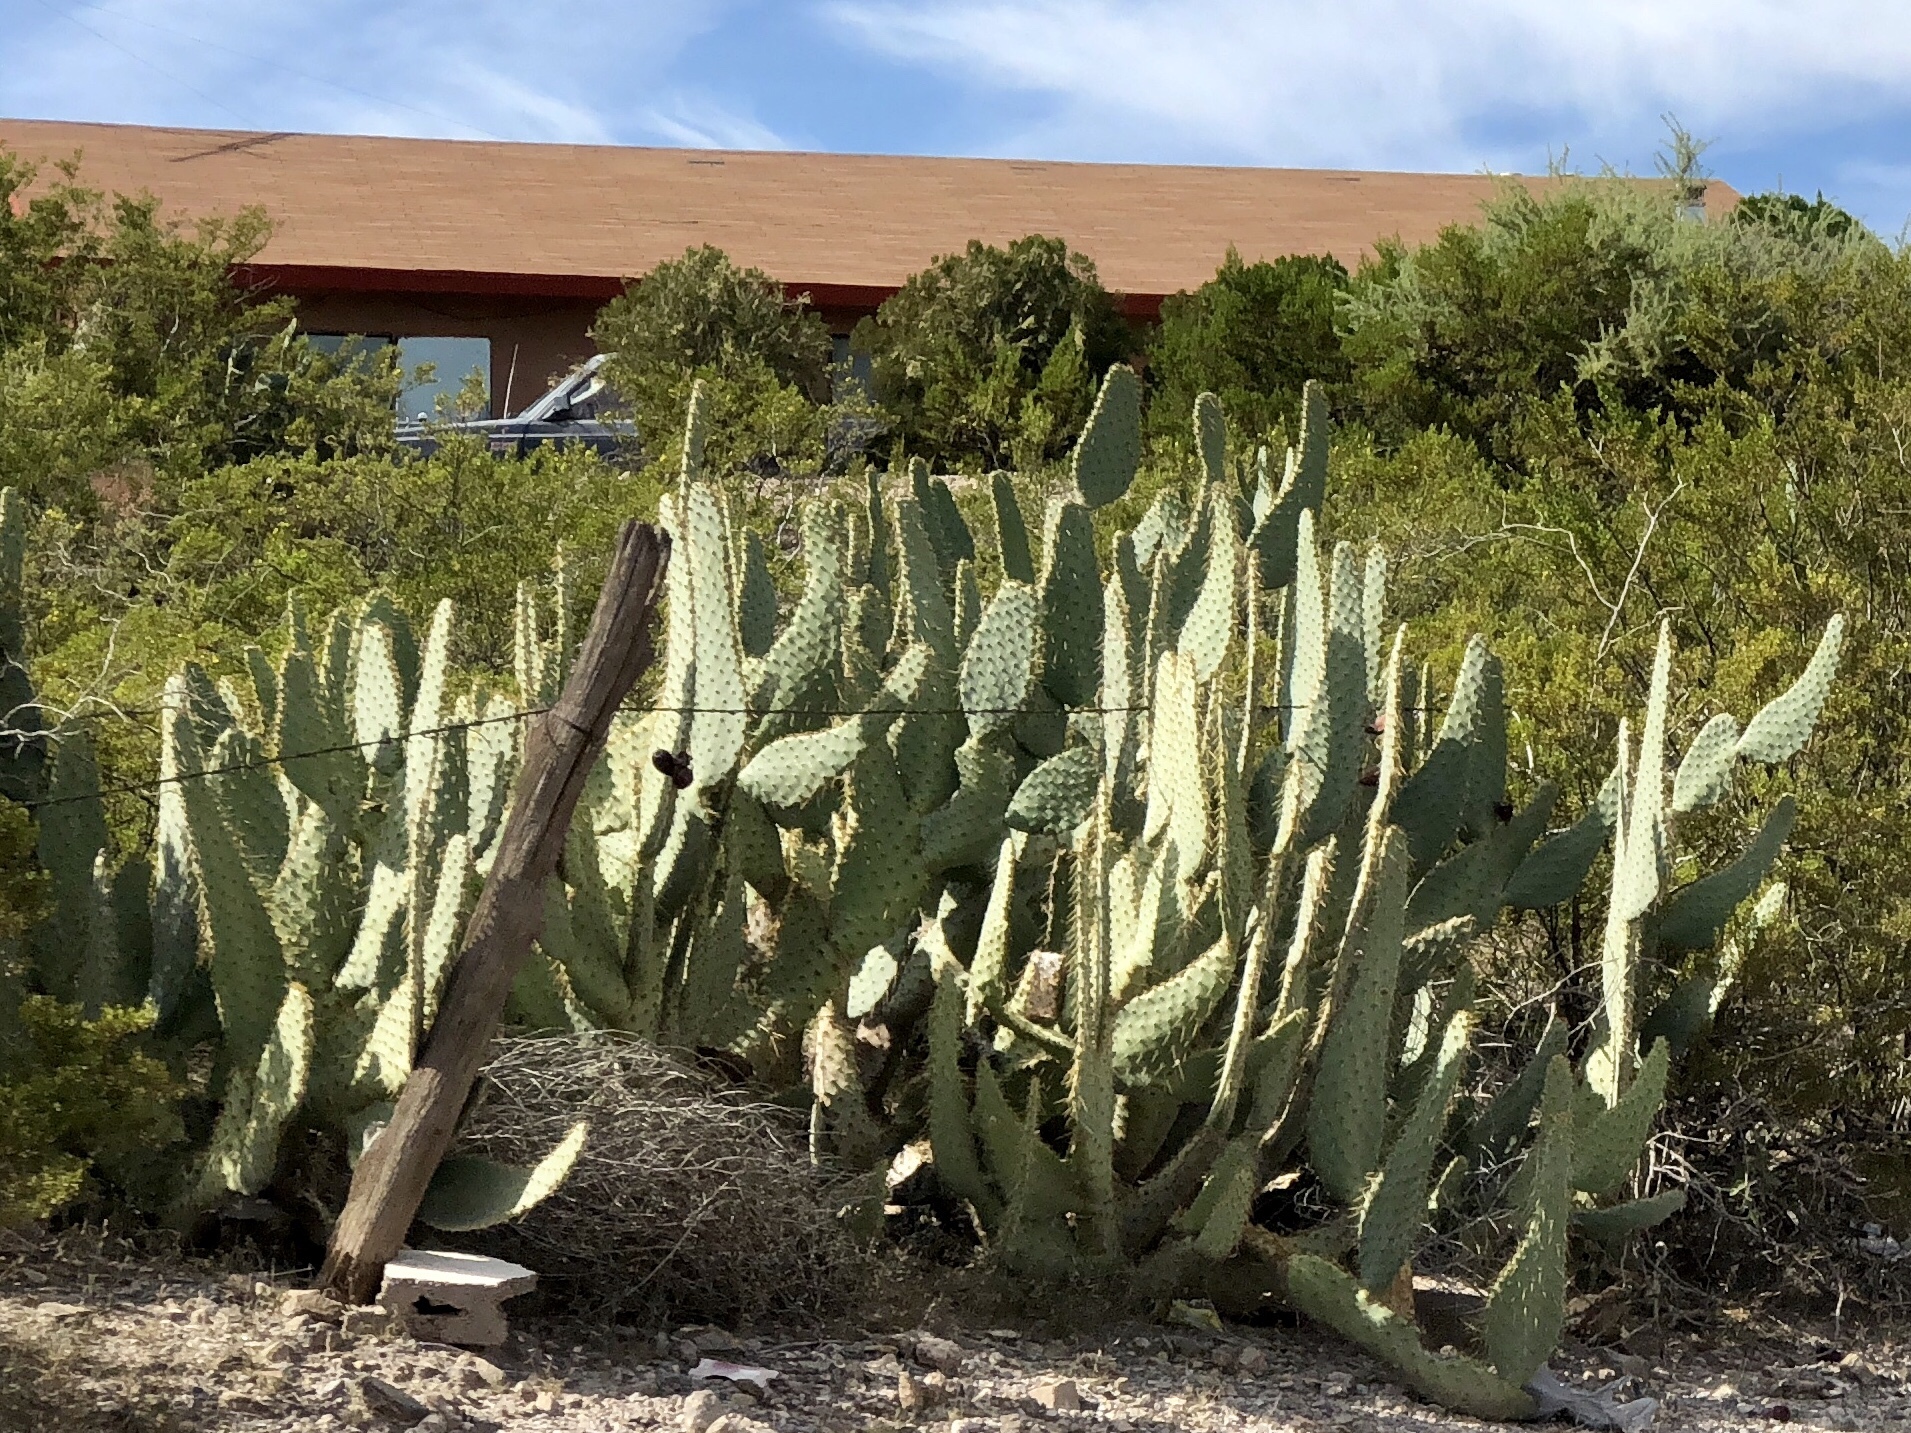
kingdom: Plantae
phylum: Tracheophyta
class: Magnoliopsida
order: Caryophyllales
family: Cactaceae
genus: Opuntia
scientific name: Opuntia engelmannii
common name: Cactus-apple
